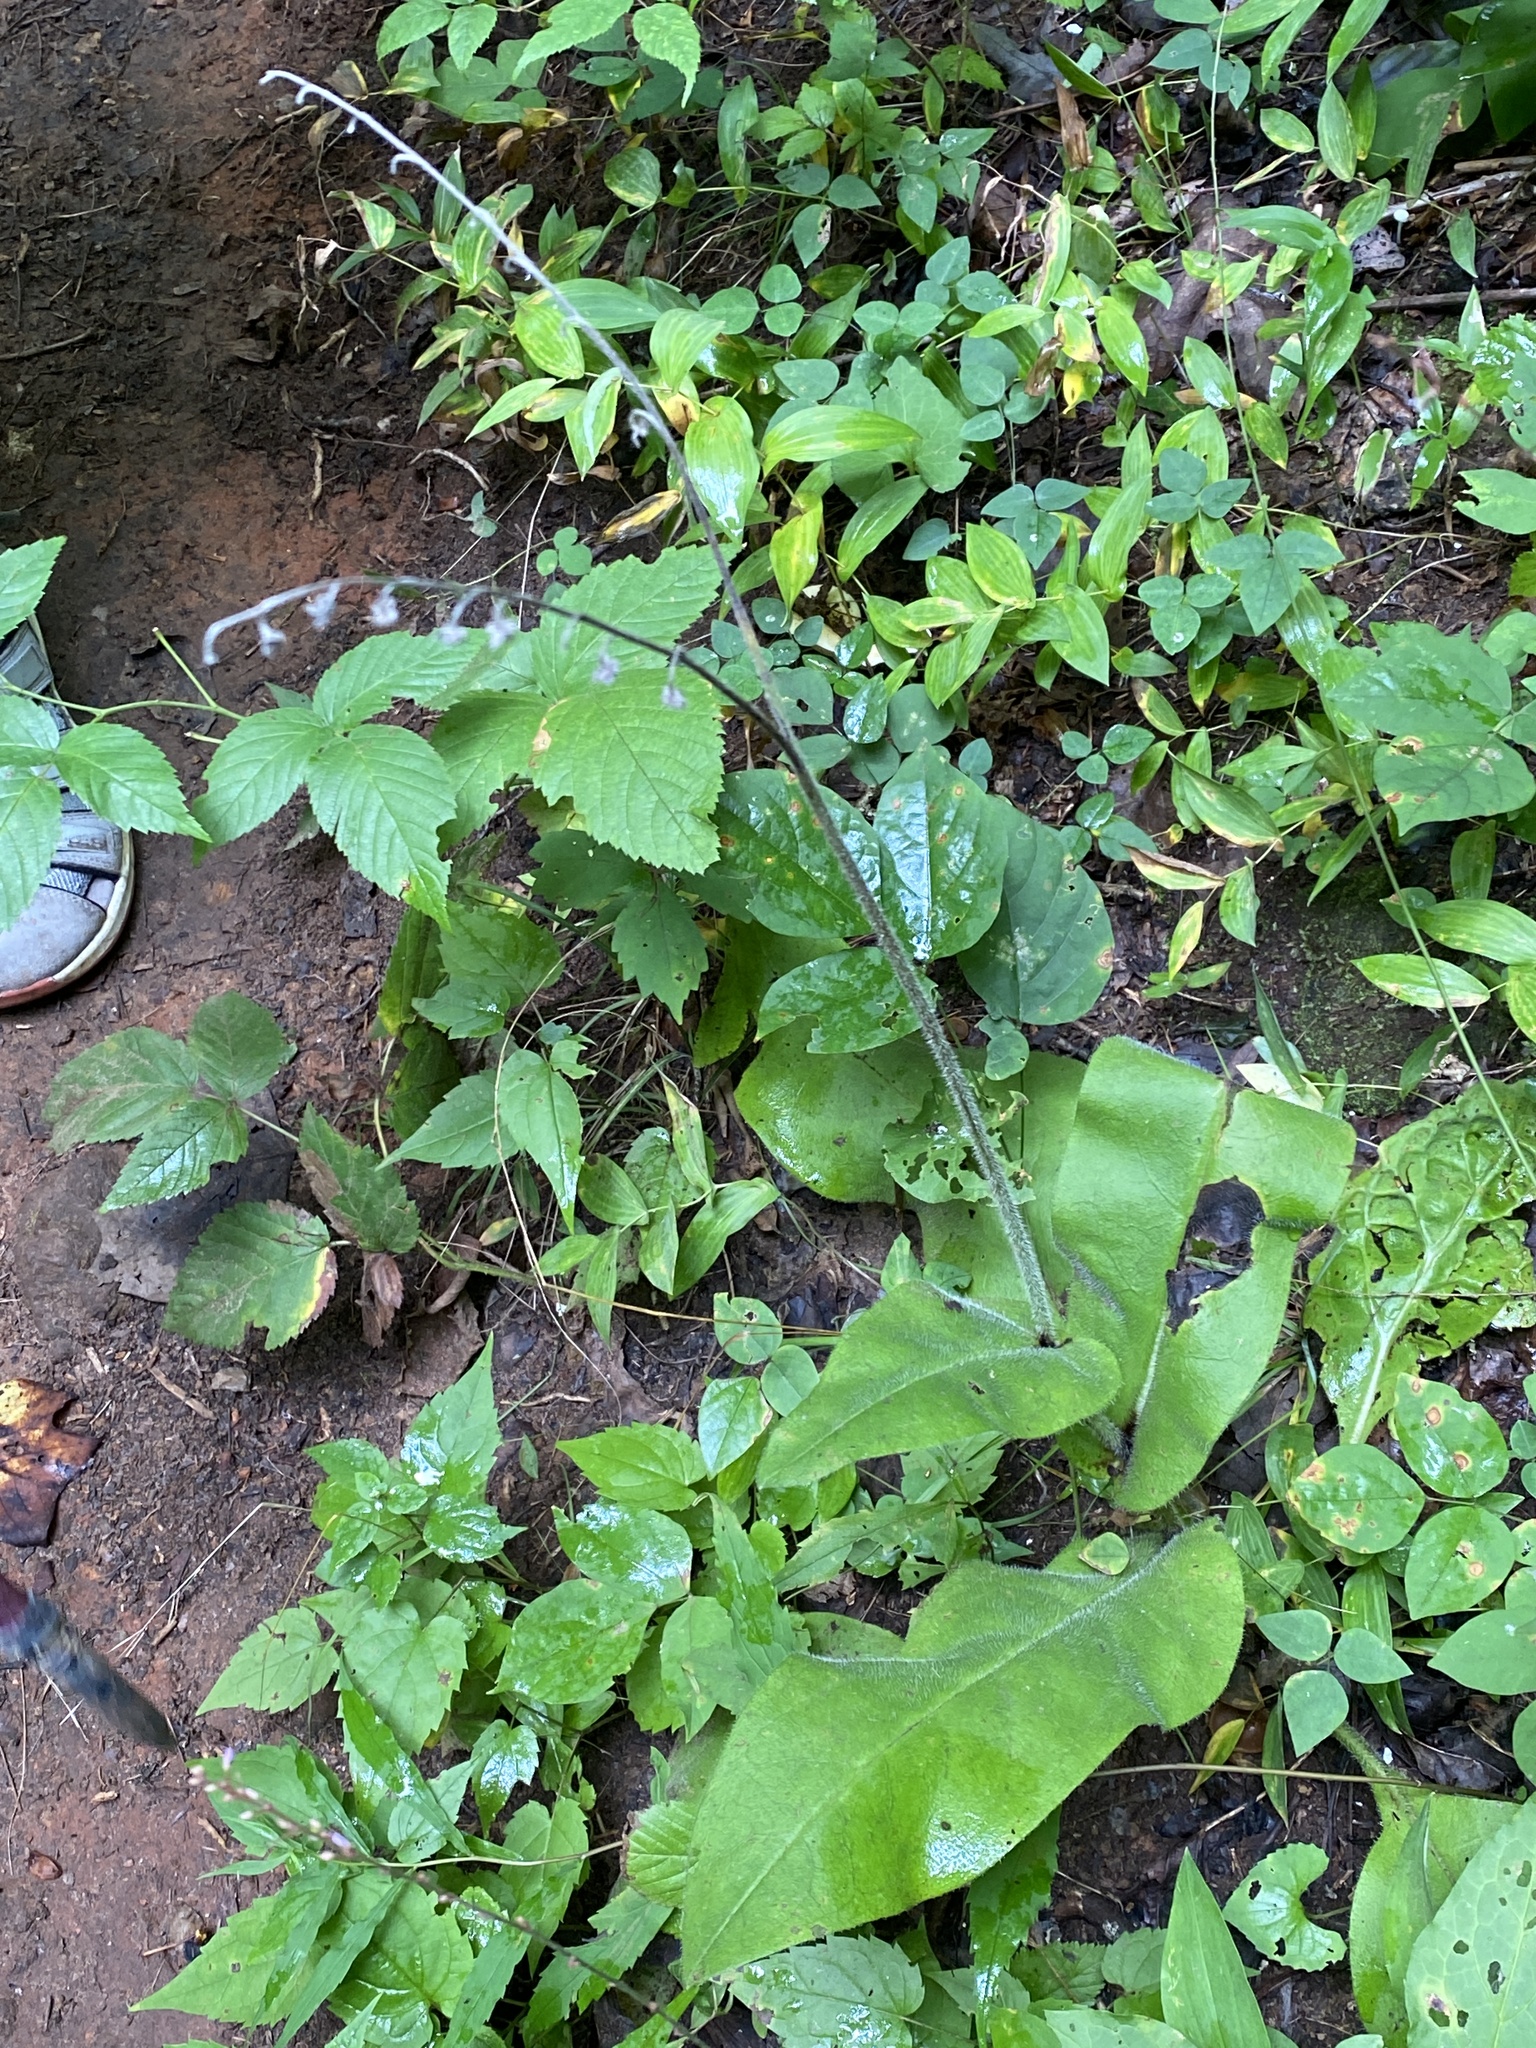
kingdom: Plantae
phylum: Tracheophyta
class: Magnoliopsida
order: Boraginales
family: Boraginaceae
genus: Andersonglossum
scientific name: Andersonglossum virginianum
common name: Wild comfrey
